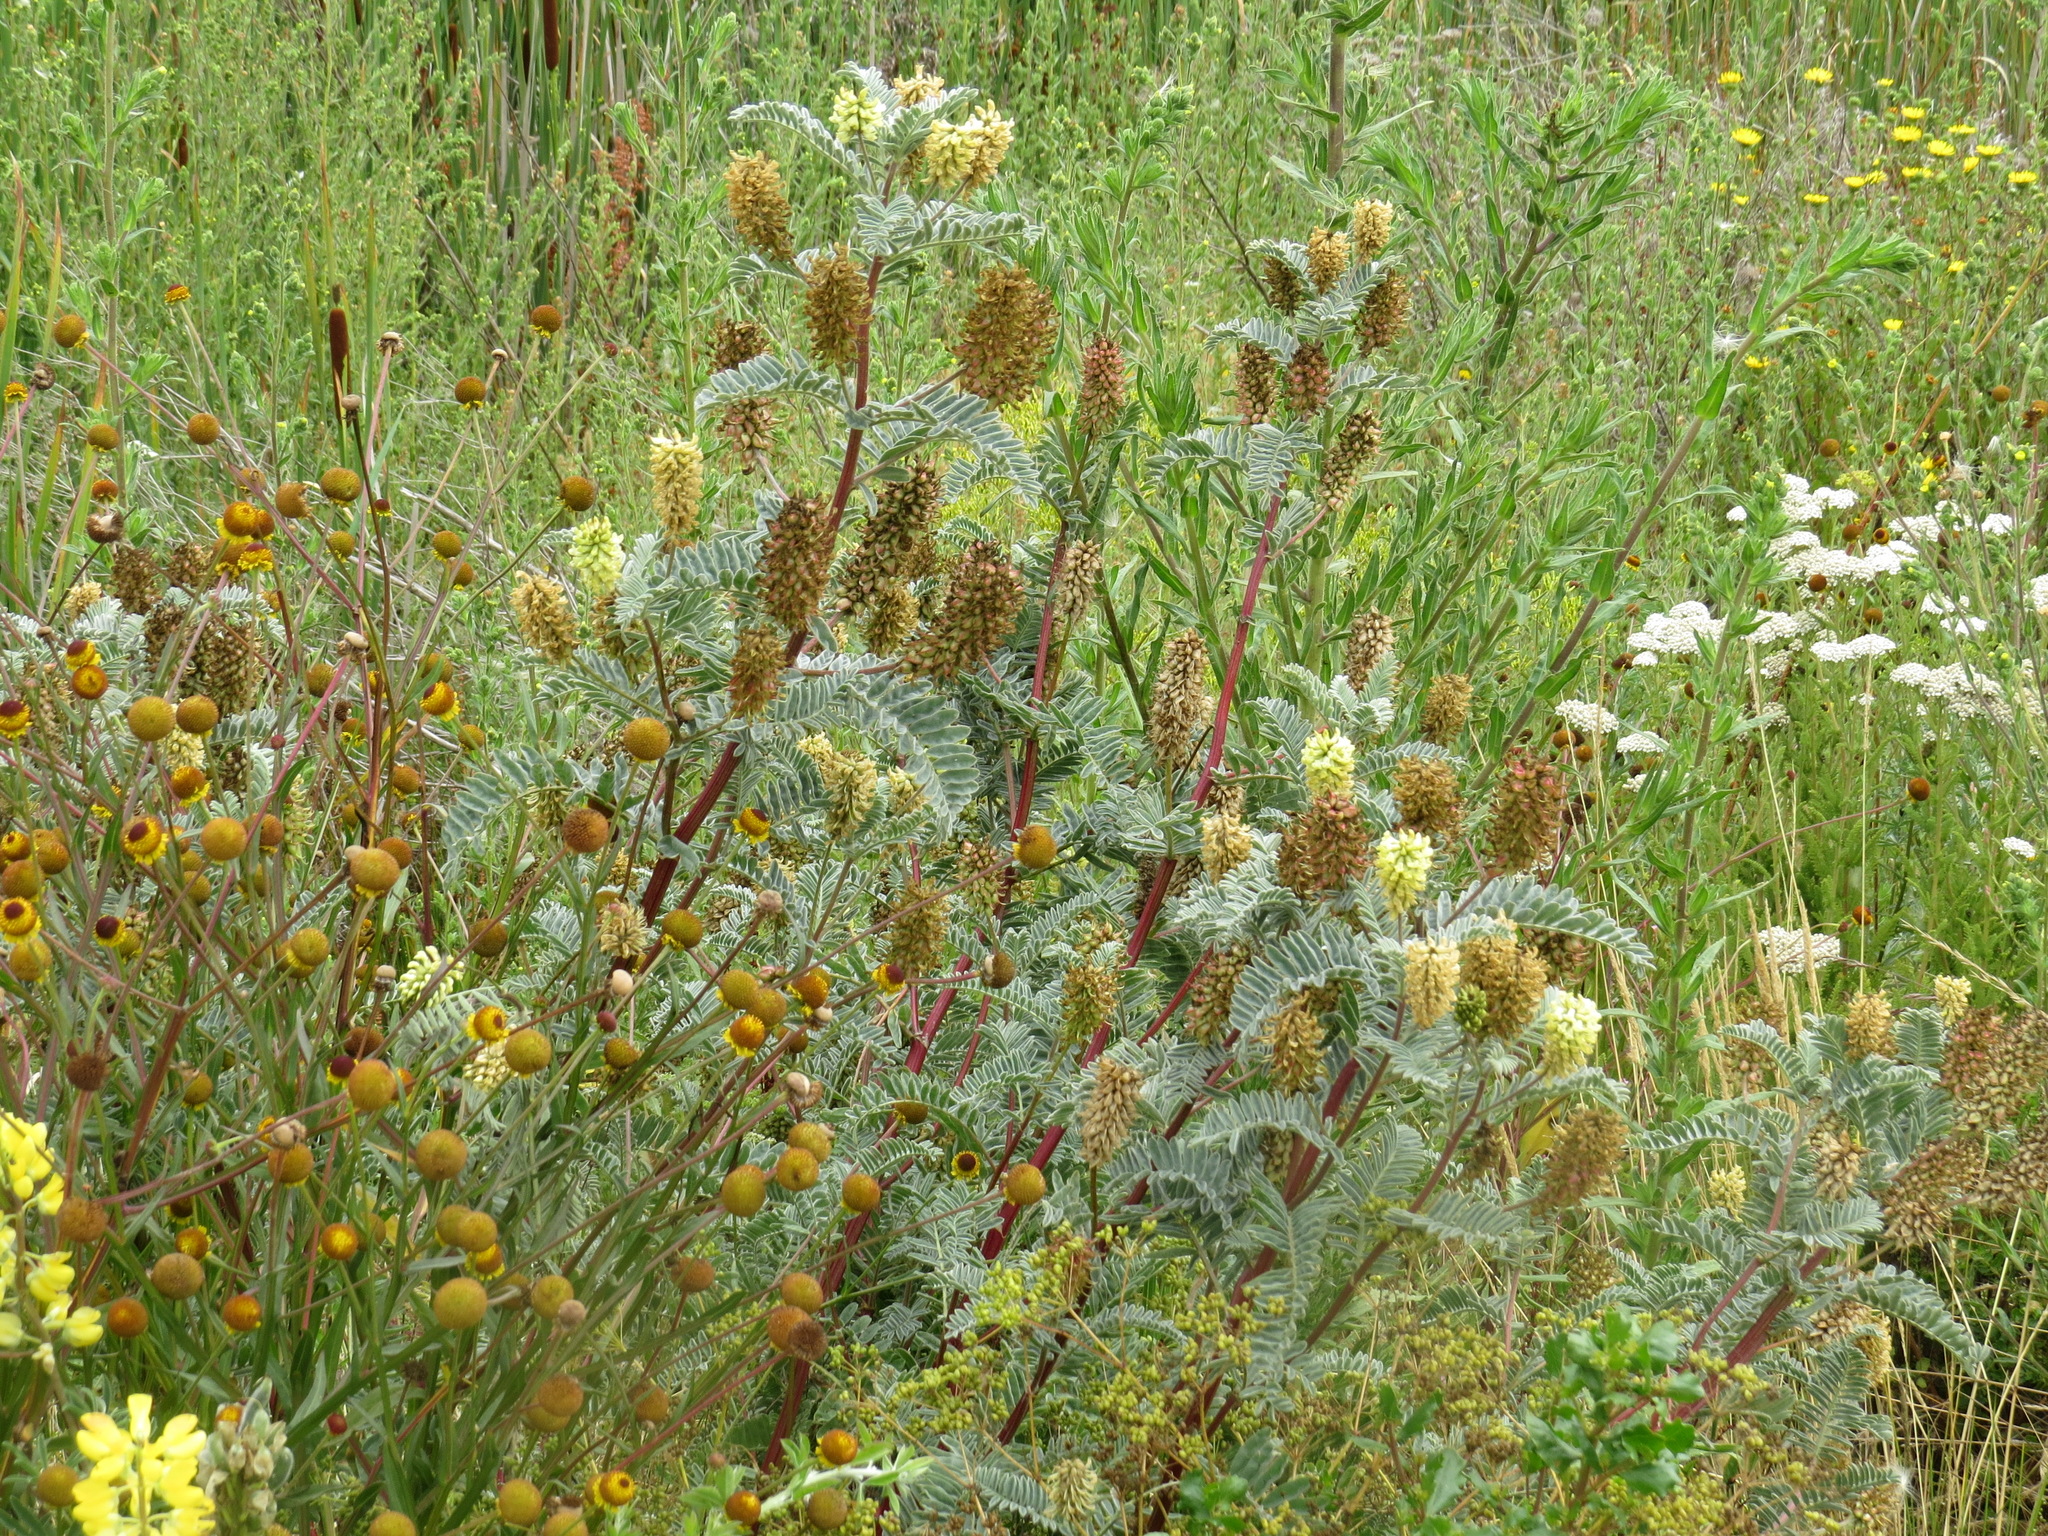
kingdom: Plantae
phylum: Tracheophyta
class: Magnoliopsida
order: Fabales
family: Fabaceae
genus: Astragalus
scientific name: Astragalus pycnostachyus
